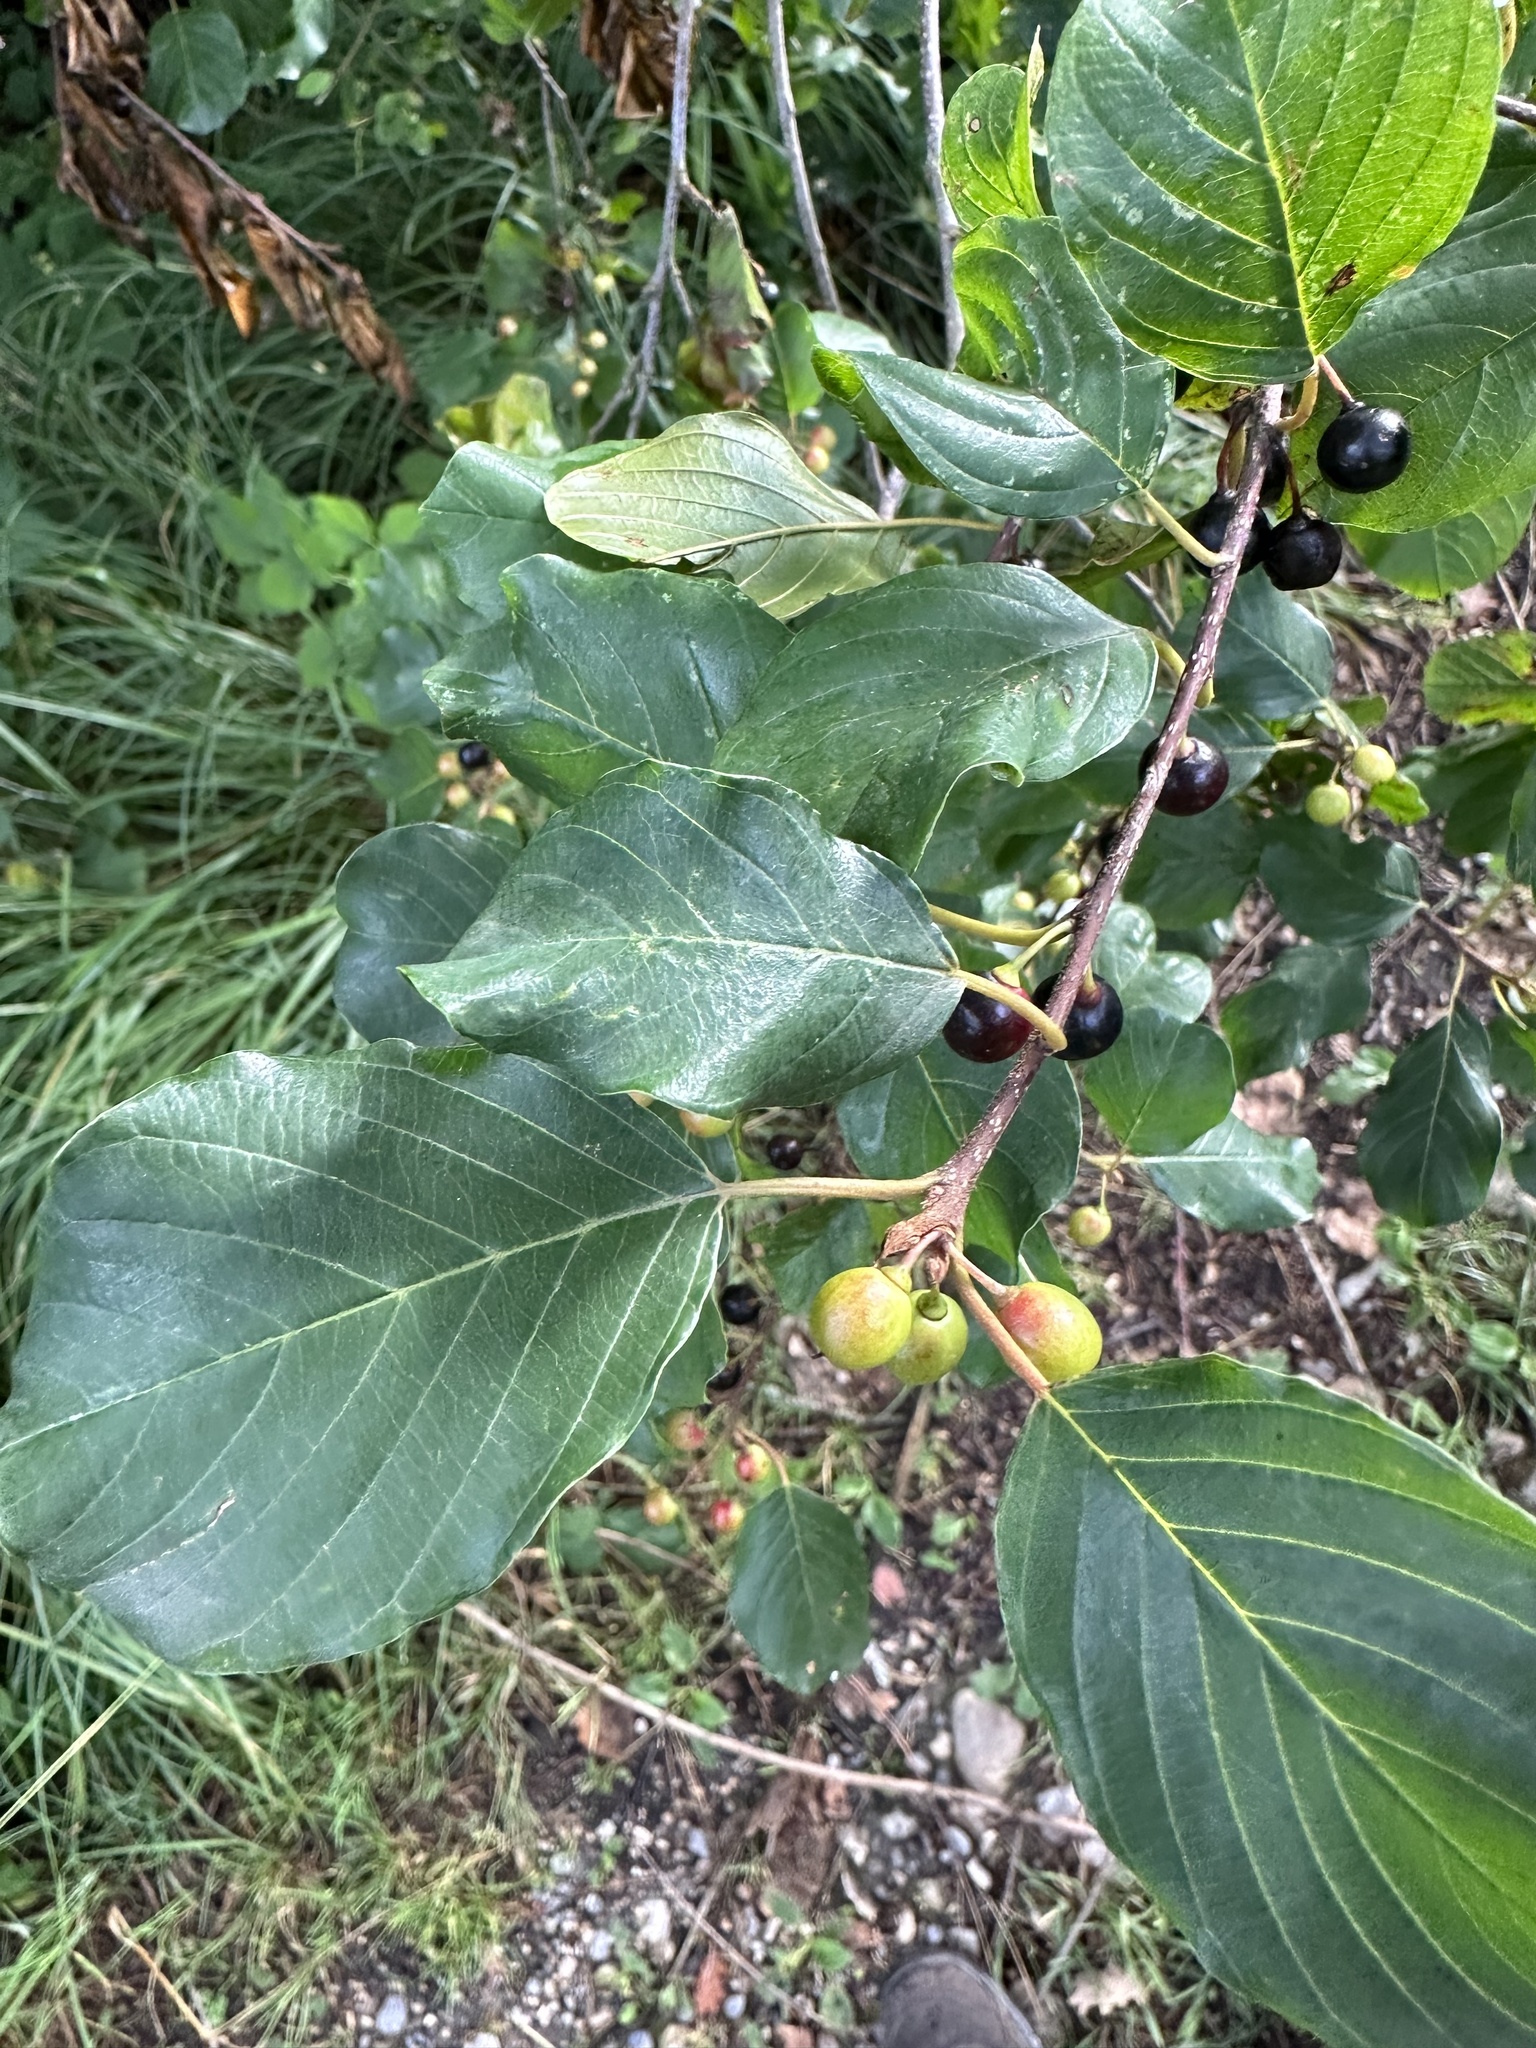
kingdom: Plantae
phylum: Tracheophyta
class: Magnoliopsida
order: Rosales
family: Rhamnaceae
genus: Frangula
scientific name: Frangula alnus
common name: Alder buckthorn
